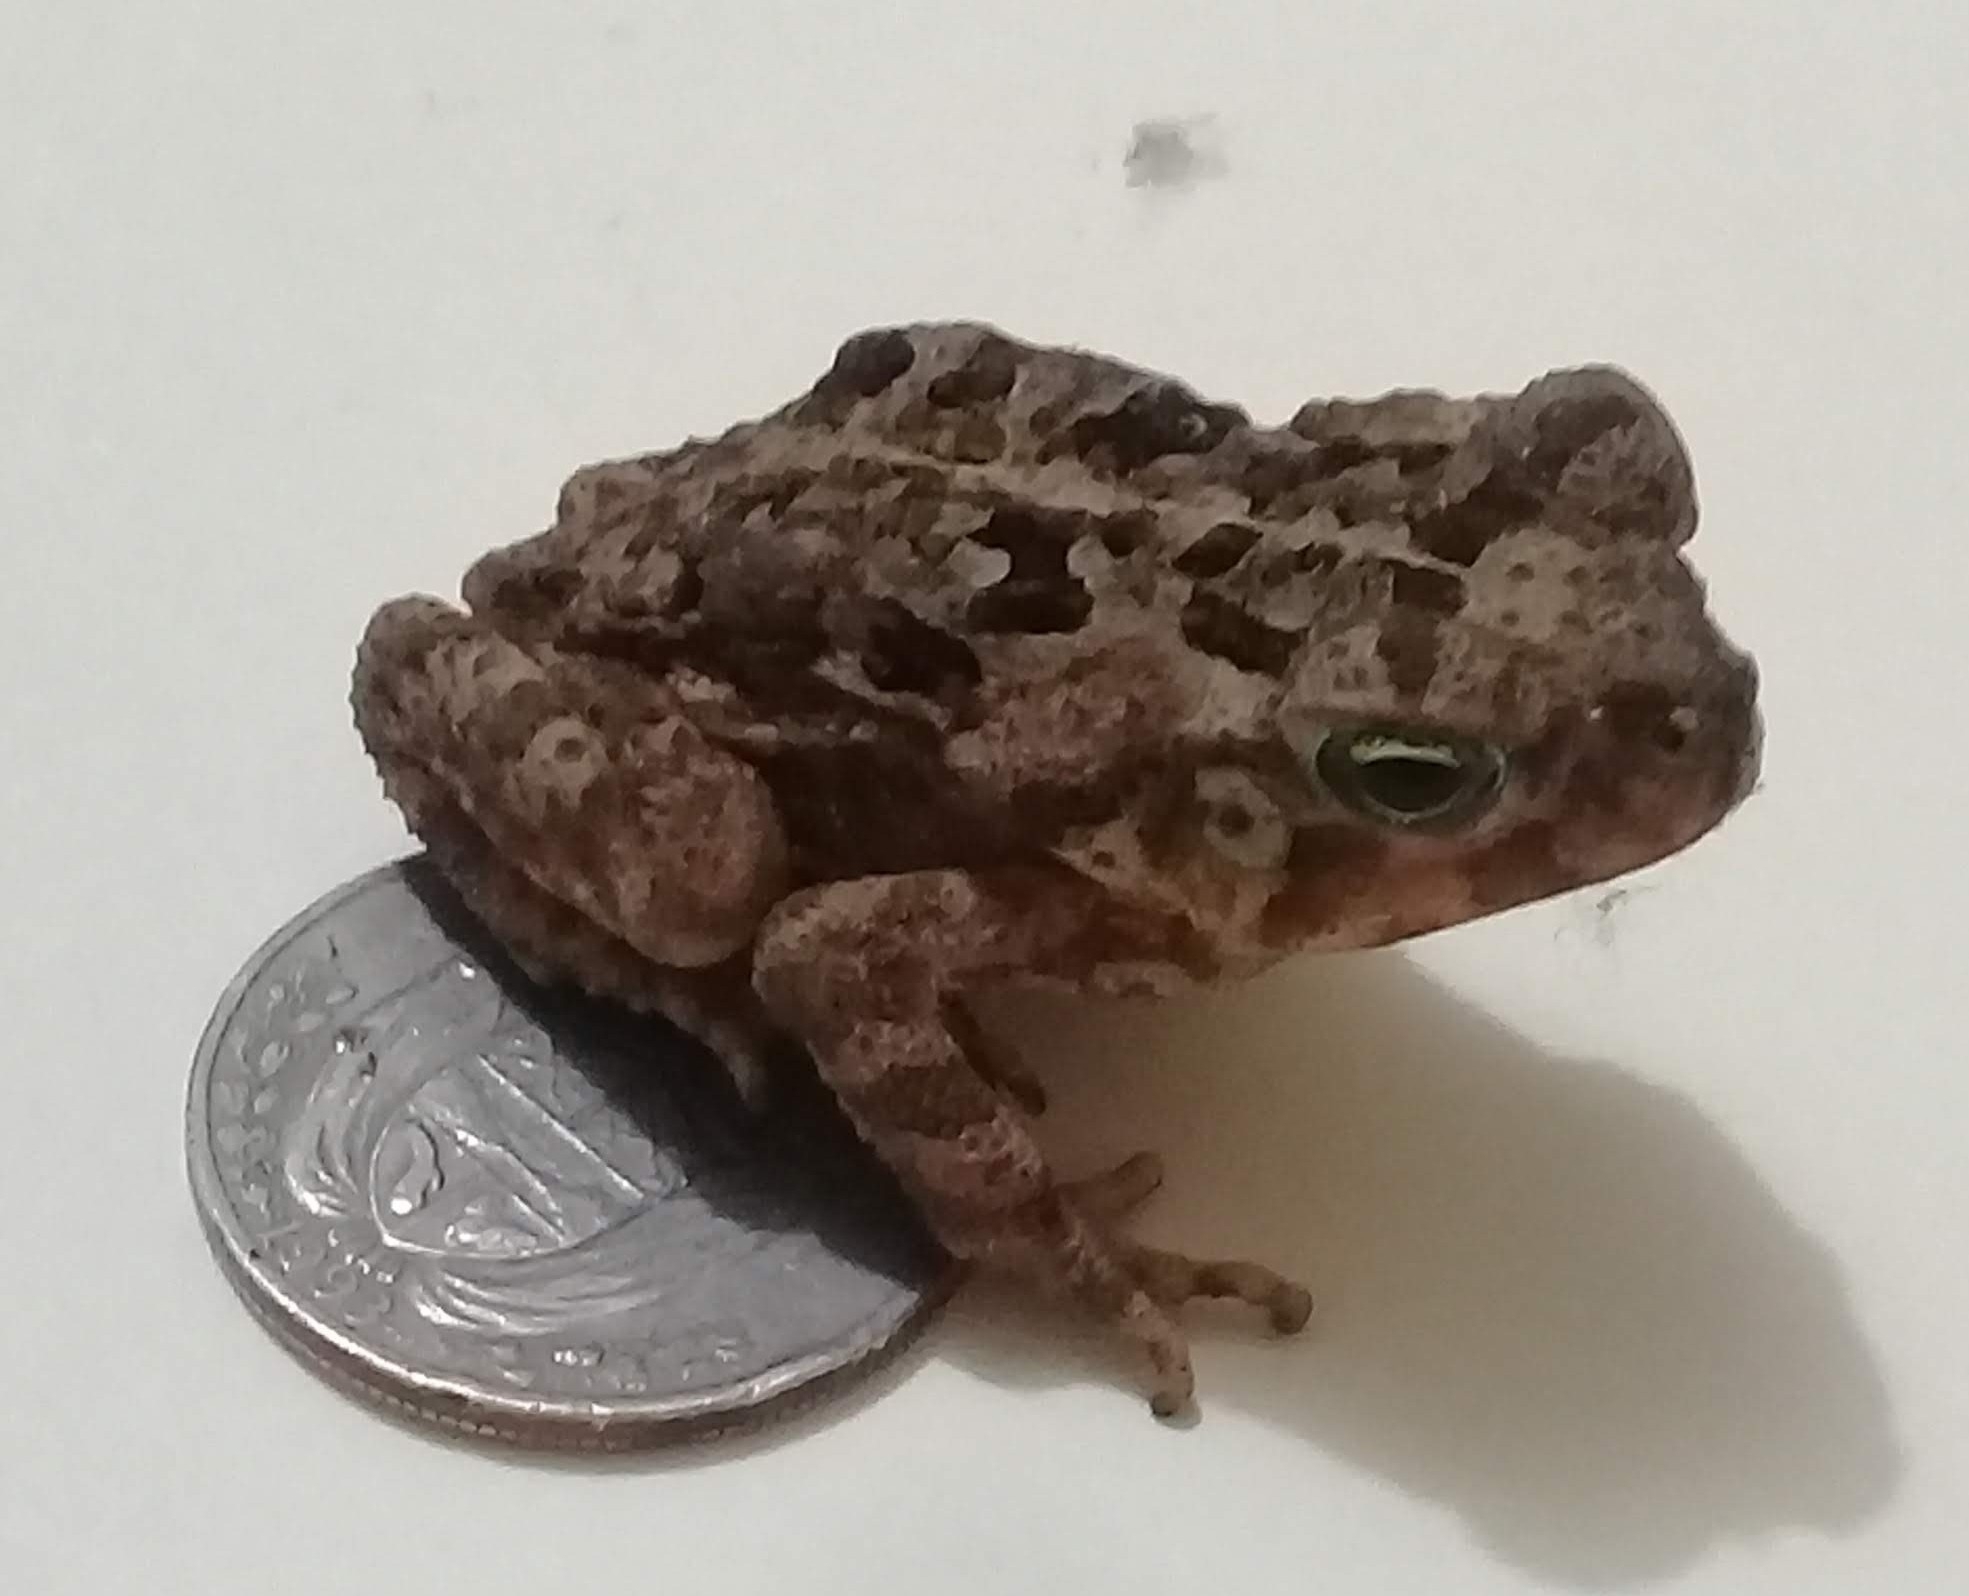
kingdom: Animalia
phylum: Chordata
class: Amphibia
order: Anura
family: Bufonidae
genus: Rhinella
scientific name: Rhinella horribilis
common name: Mesoamerican cane toad
